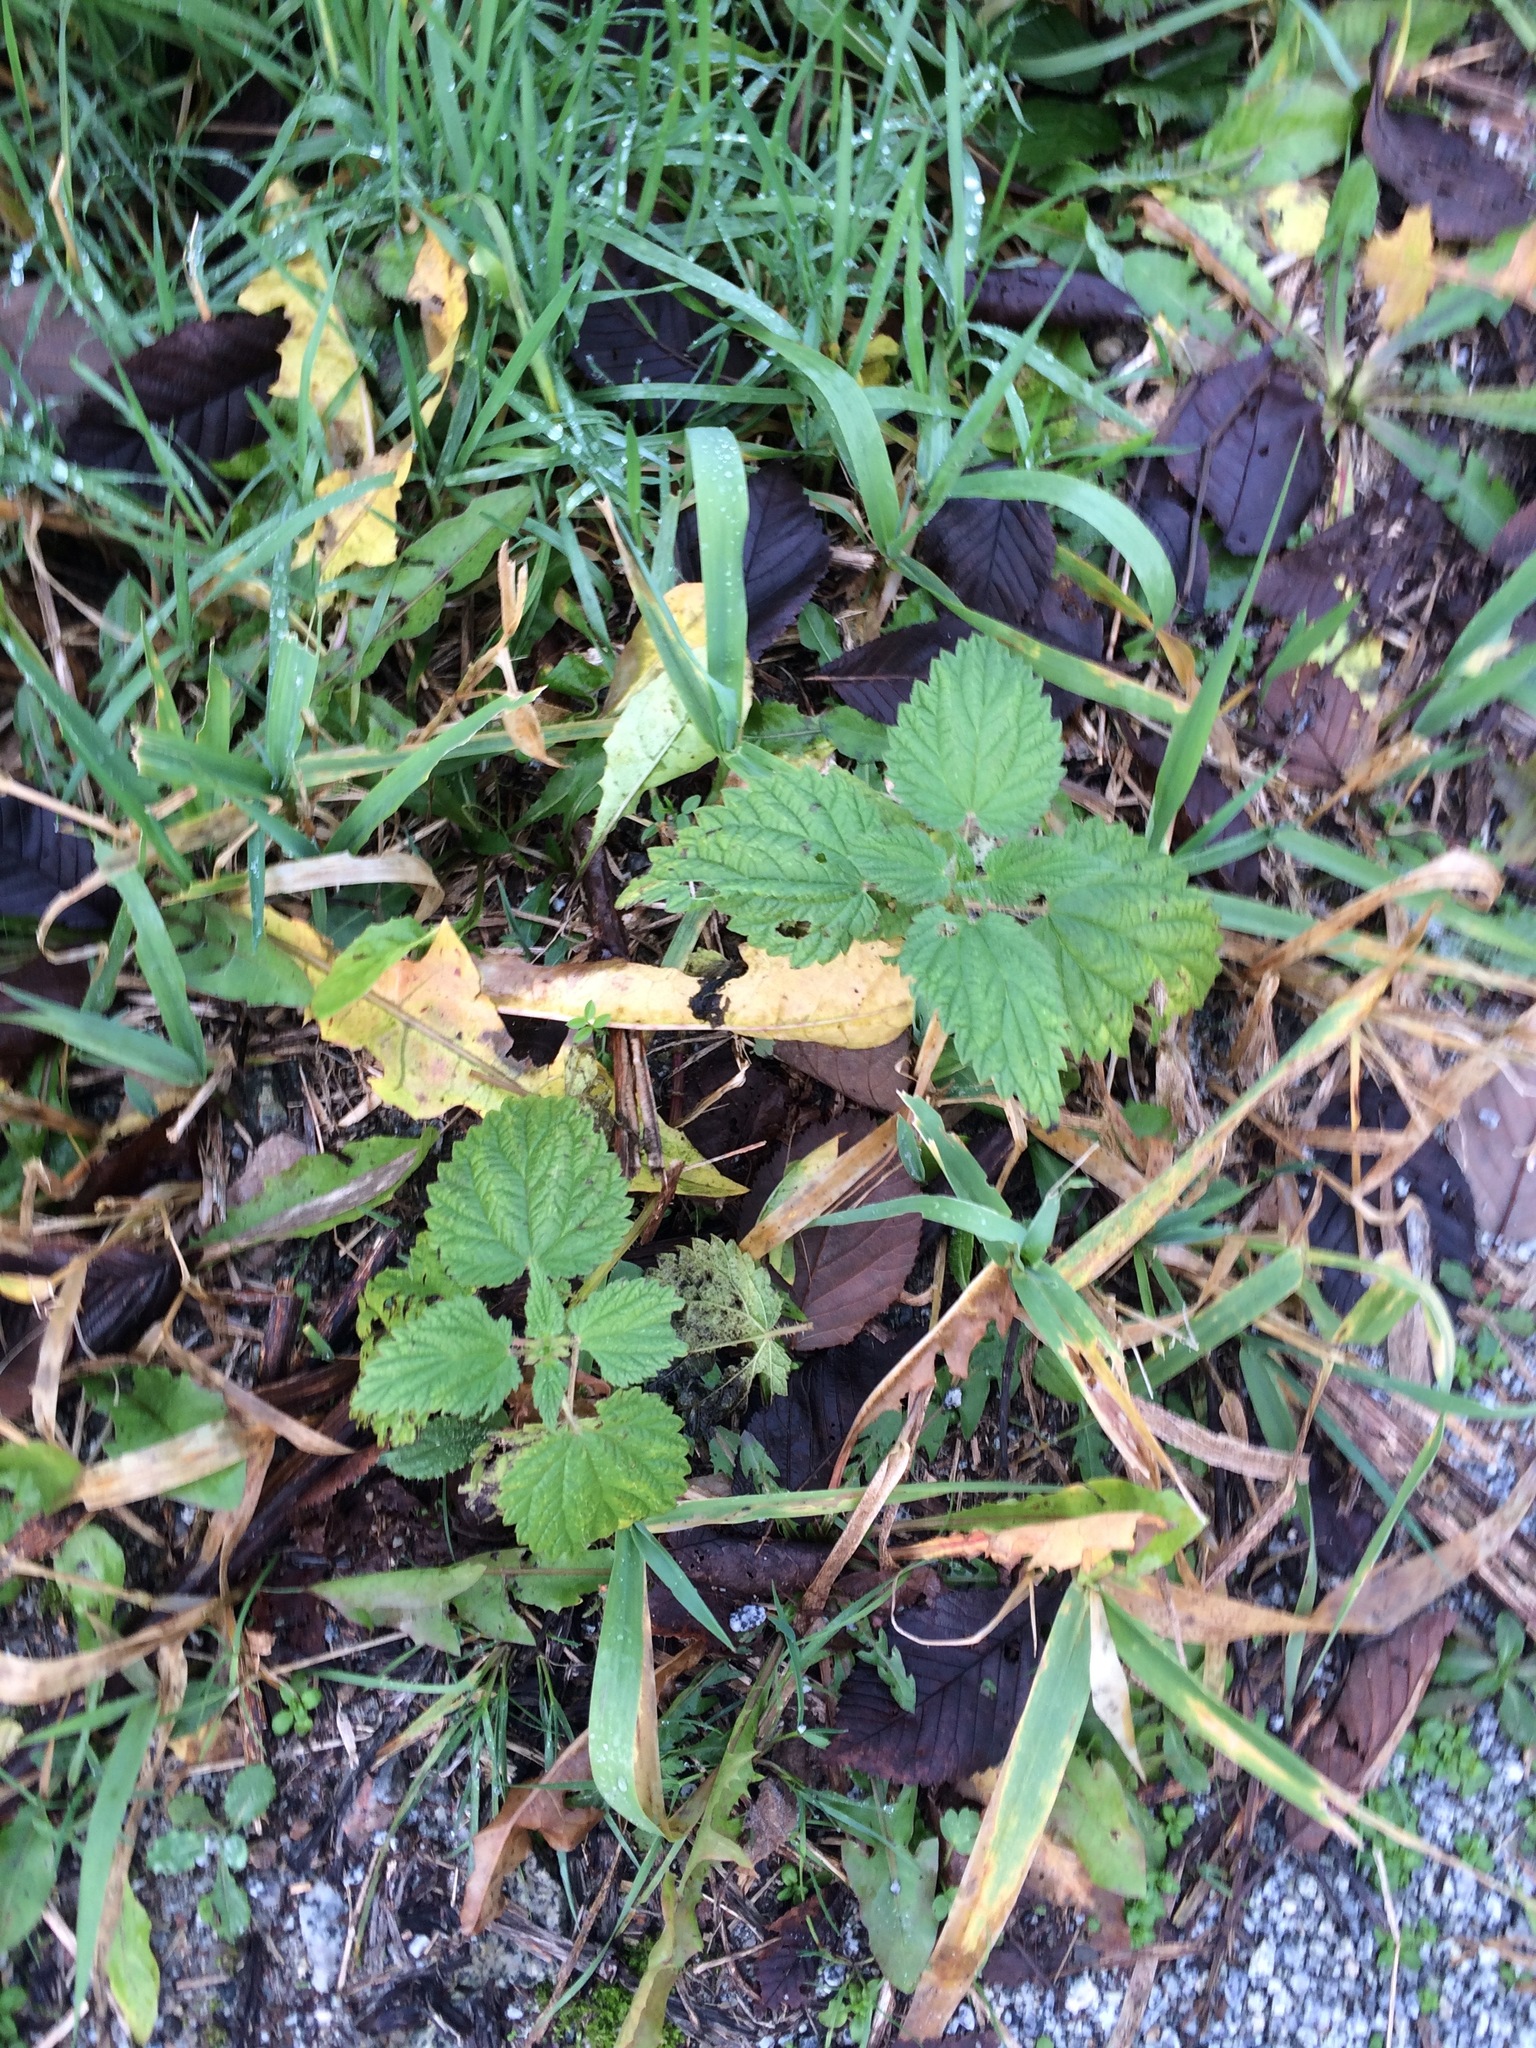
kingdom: Plantae
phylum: Tracheophyta
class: Magnoliopsida
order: Rosales
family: Urticaceae
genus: Urtica
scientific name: Urtica dioica
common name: Common nettle
